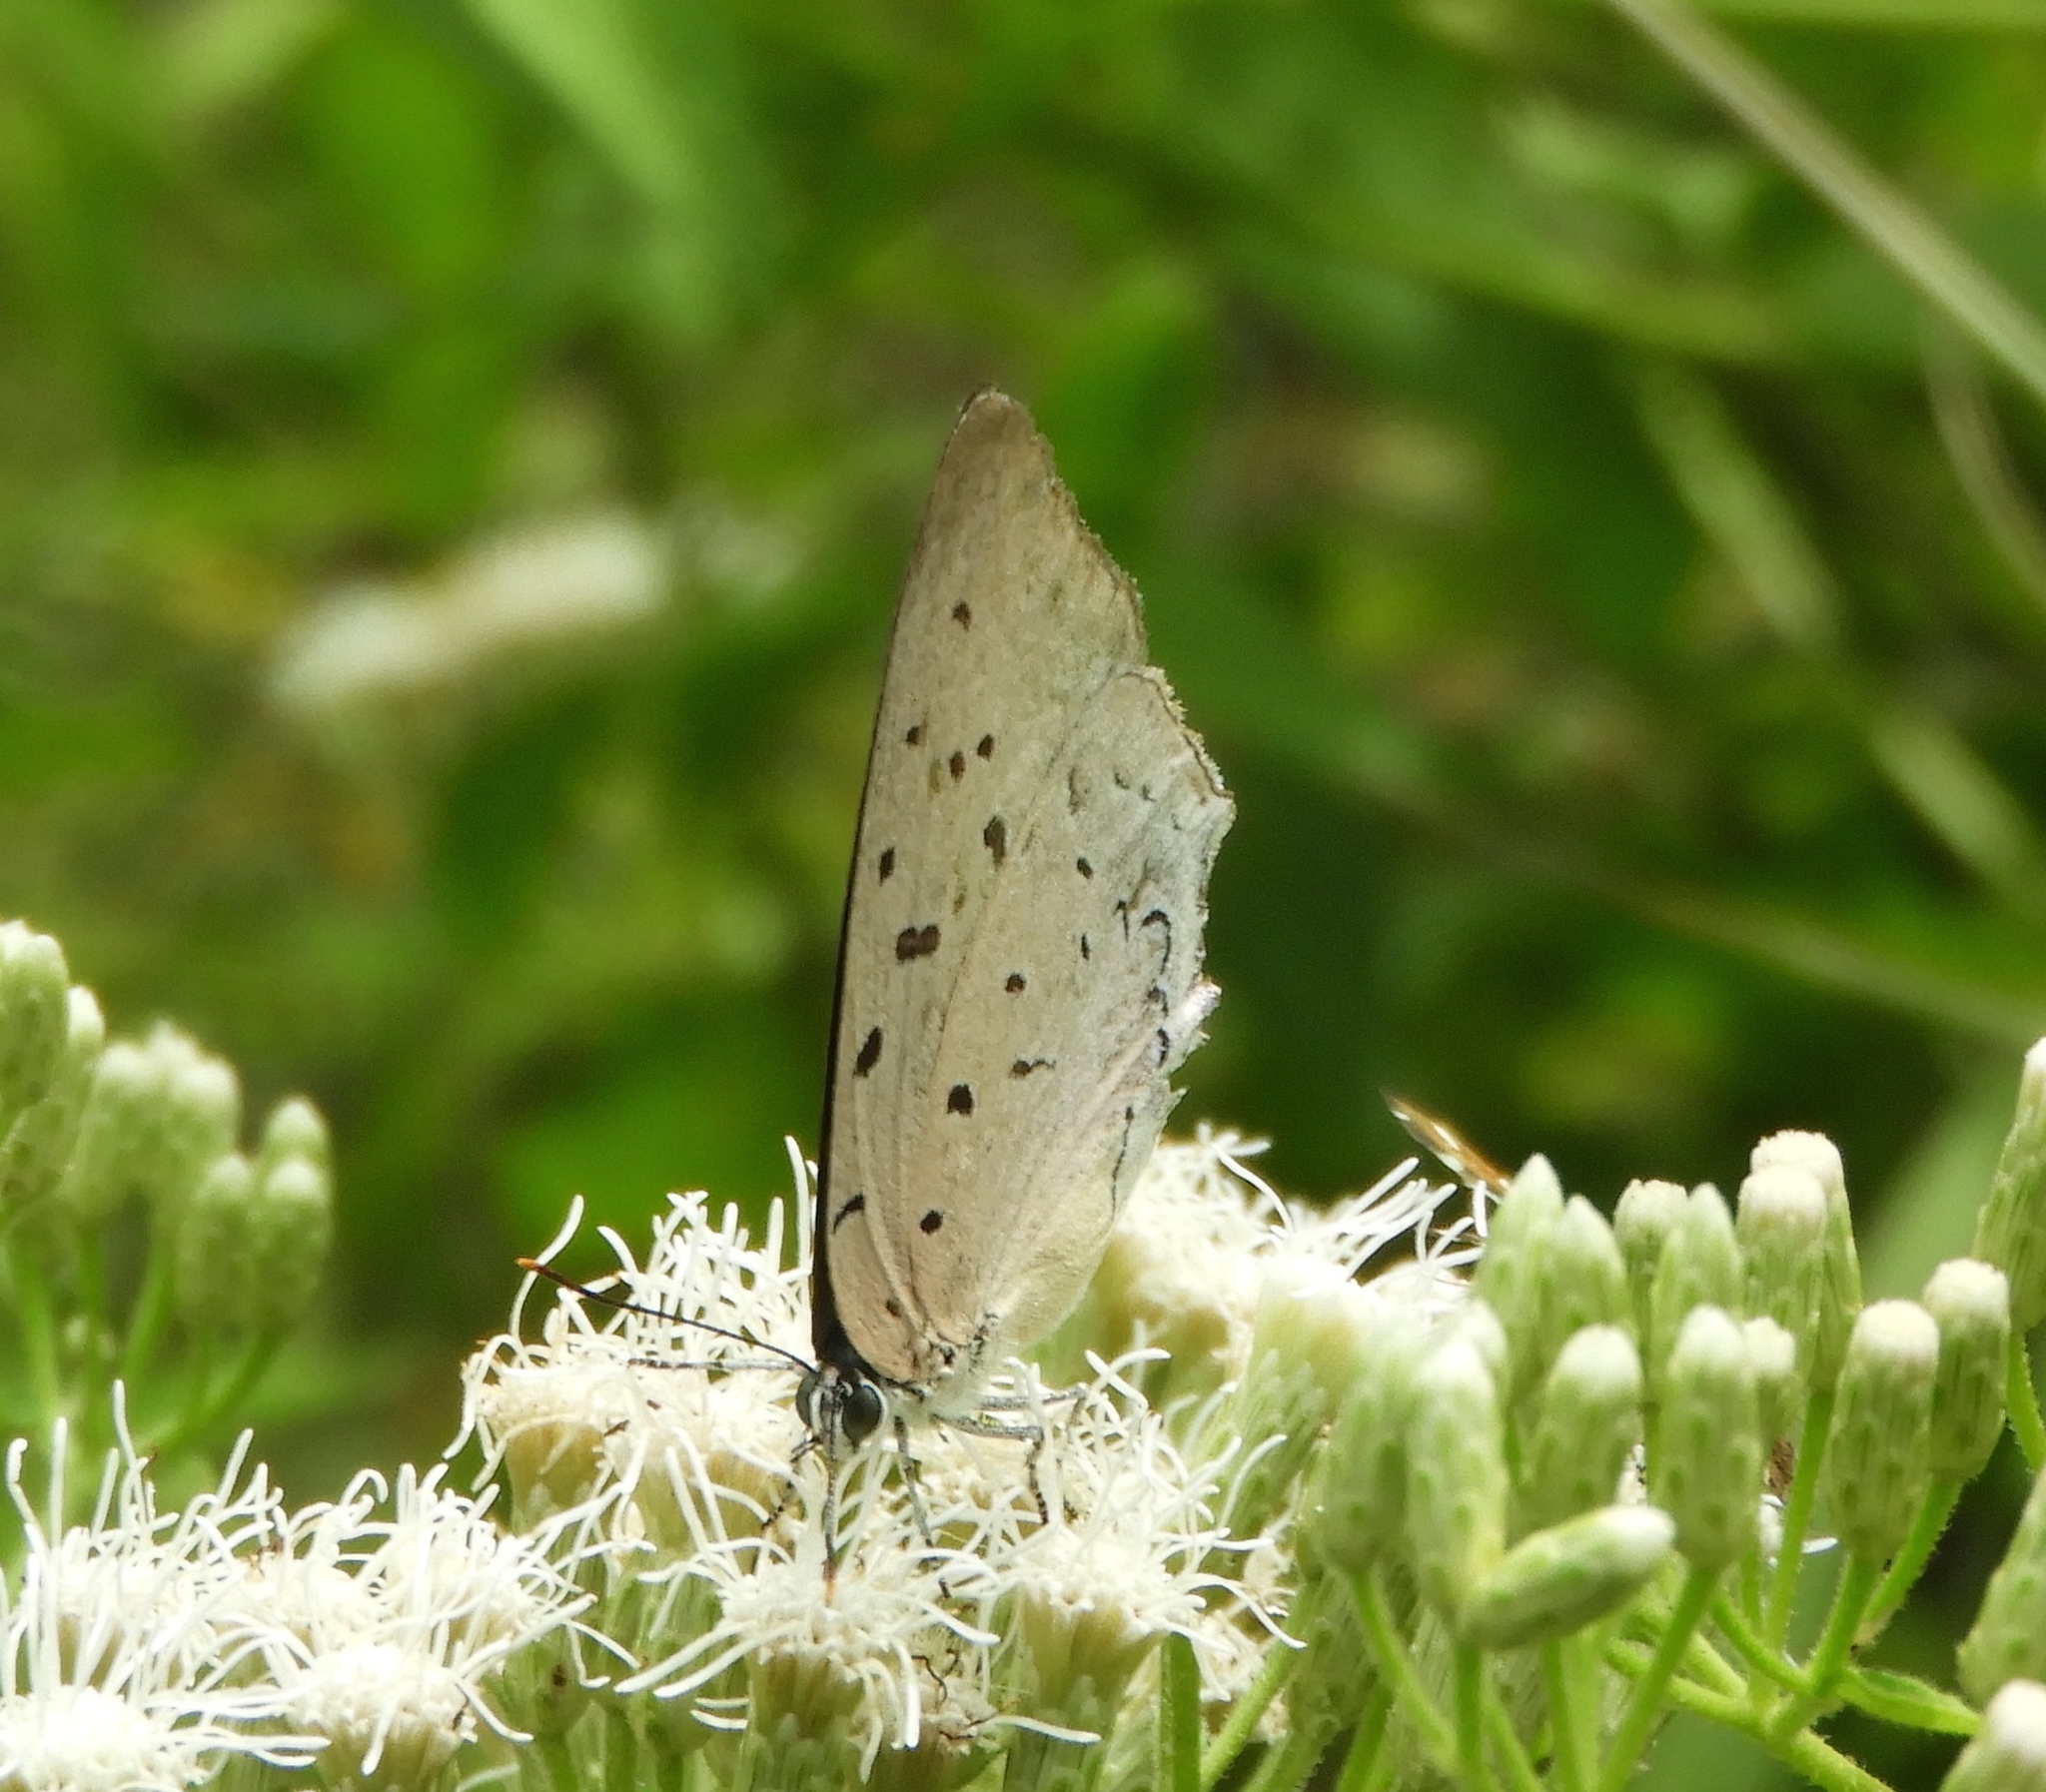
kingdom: Animalia
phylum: Arthropoda
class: Insecta
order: Lepidoptera
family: Lycaenidae
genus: Pseudolycaena
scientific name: Pseudolycaena damo
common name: Sky-blue hairstreak
